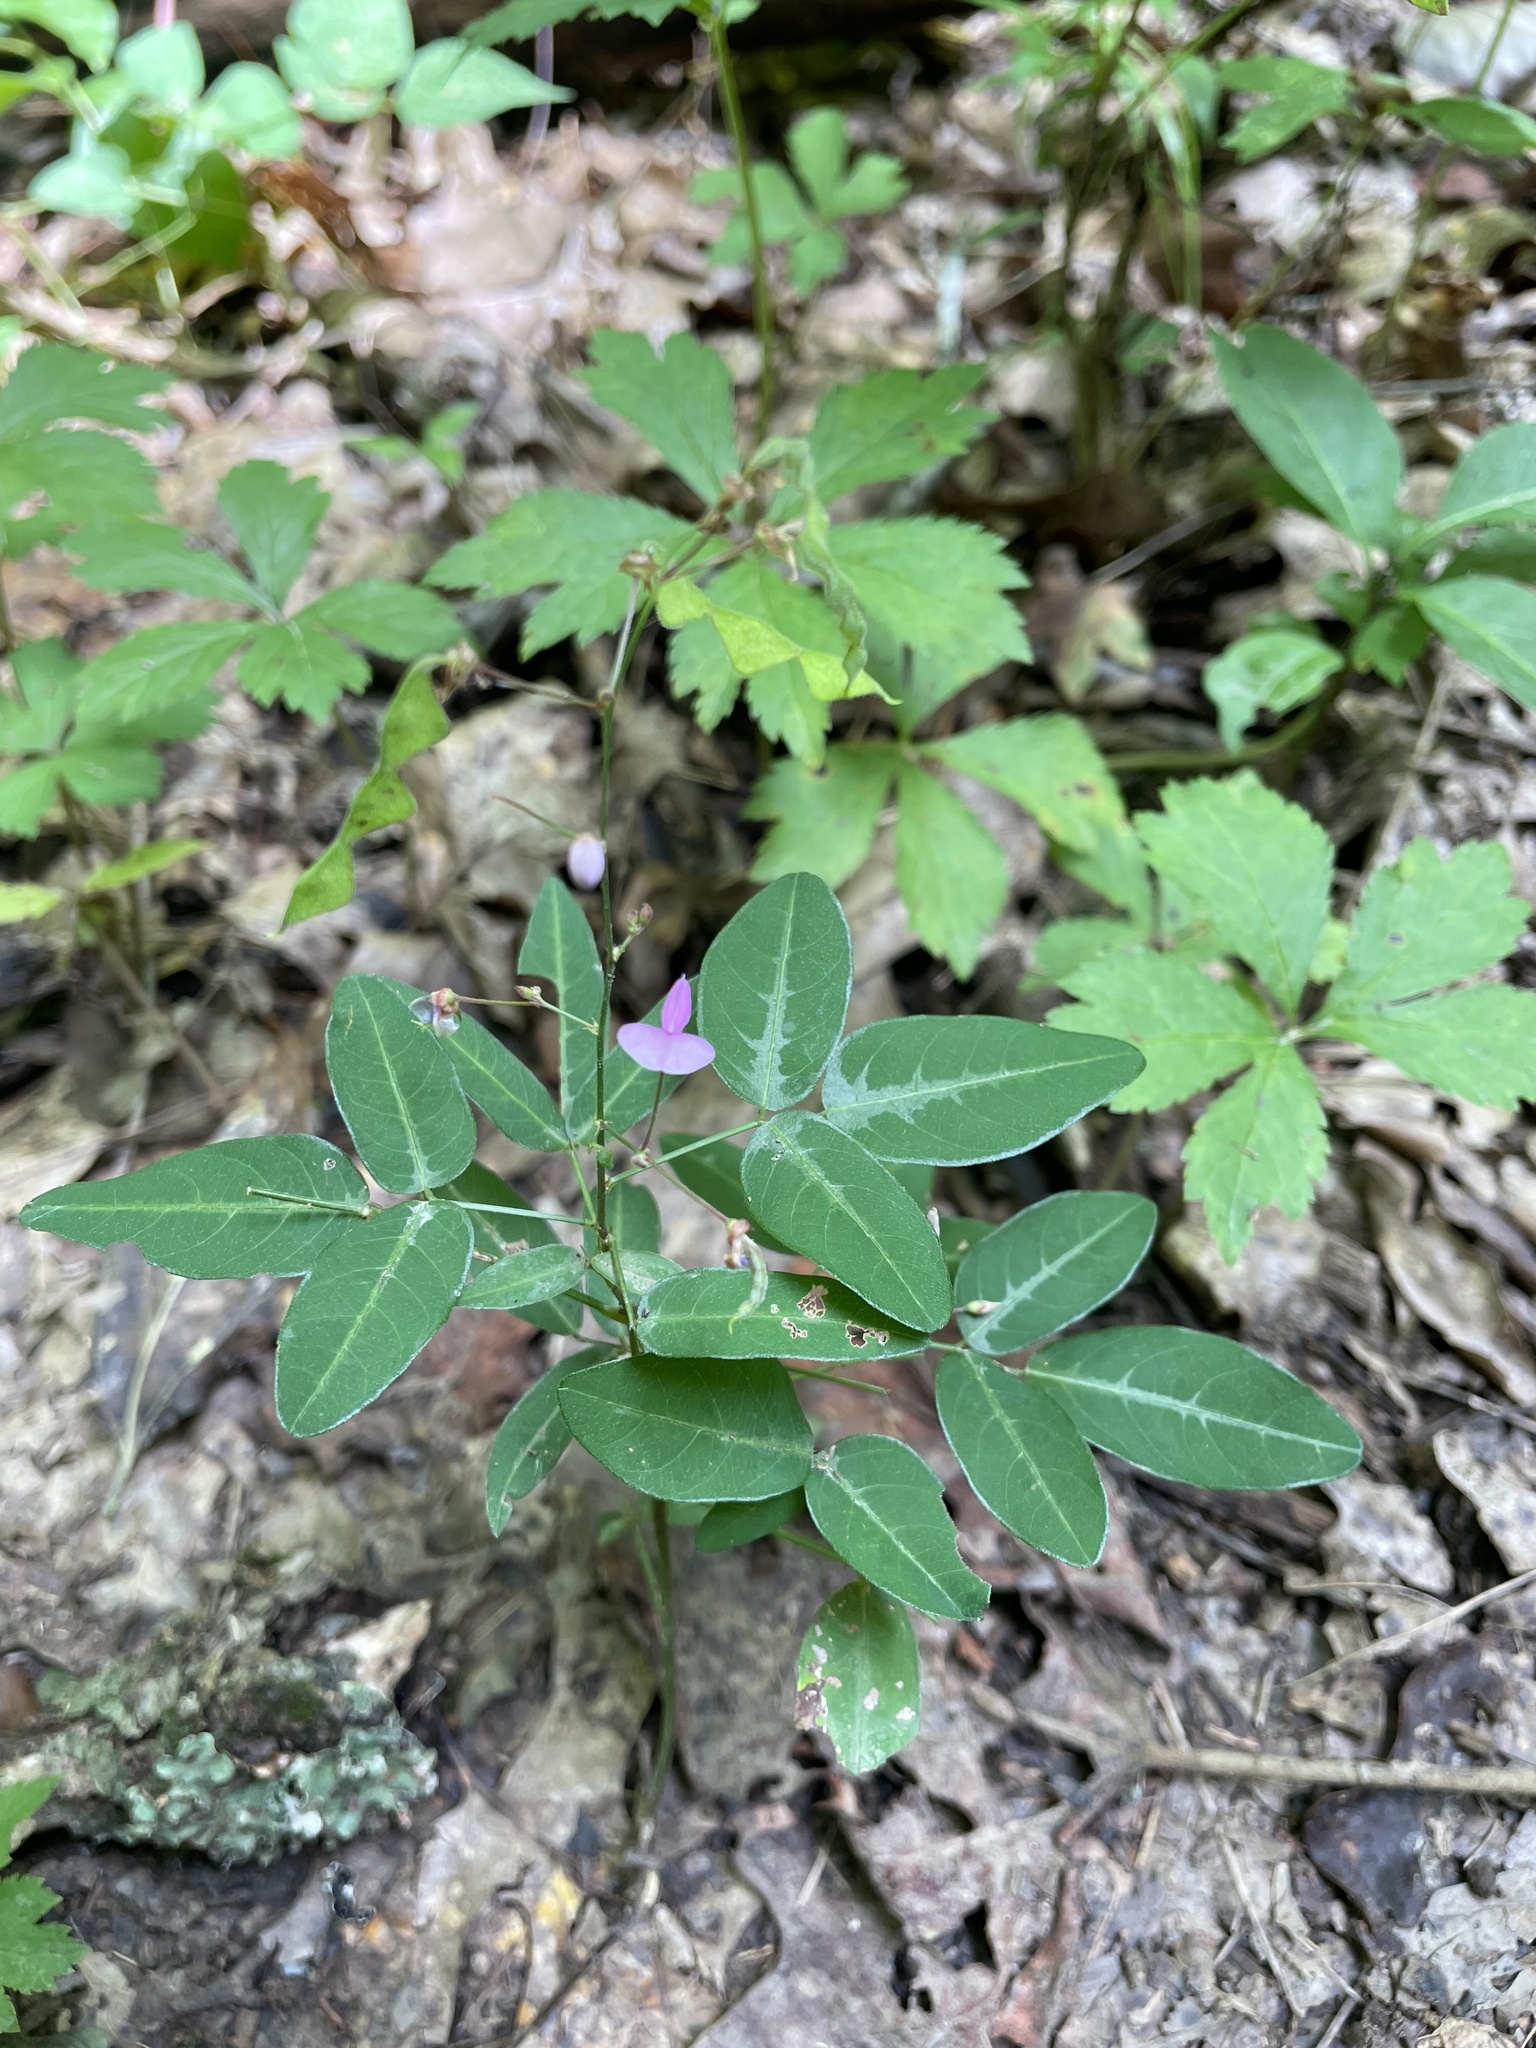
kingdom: Plantae
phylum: Tracheophyta
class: Magnoliopsida
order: Fabales
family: Fabaceae
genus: Desmodium
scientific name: Desmodium paniculatum
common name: Panicled tick-clover
